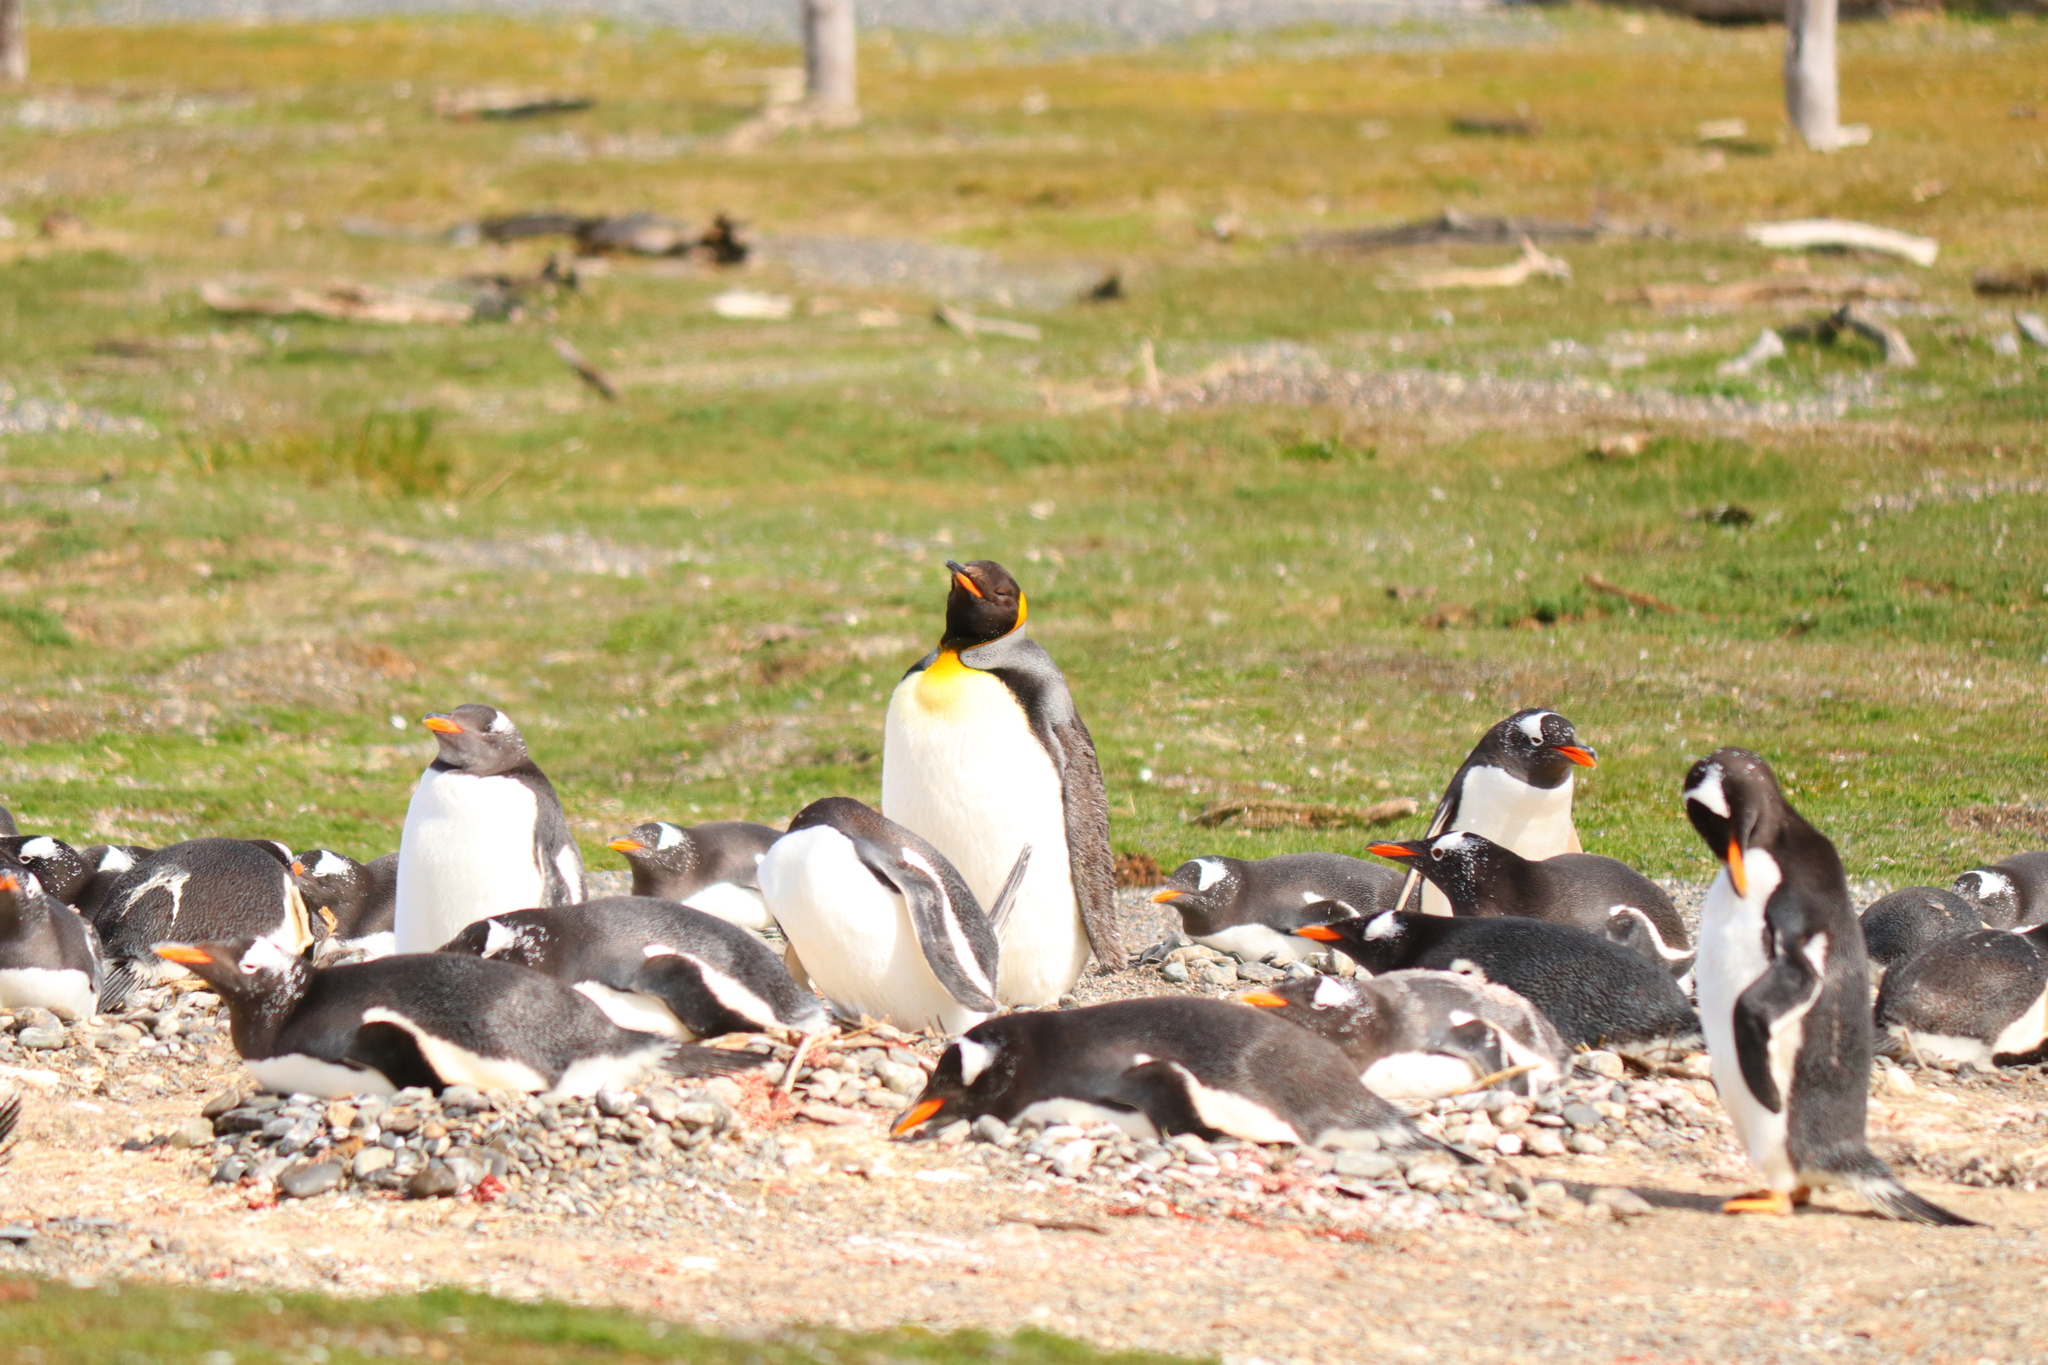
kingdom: Animalia
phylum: Chordata
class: Aves
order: Sphenisciformes
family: Spheniscidae
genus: Aptenodytes
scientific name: Aptenodytes patagonicus
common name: King penguin
